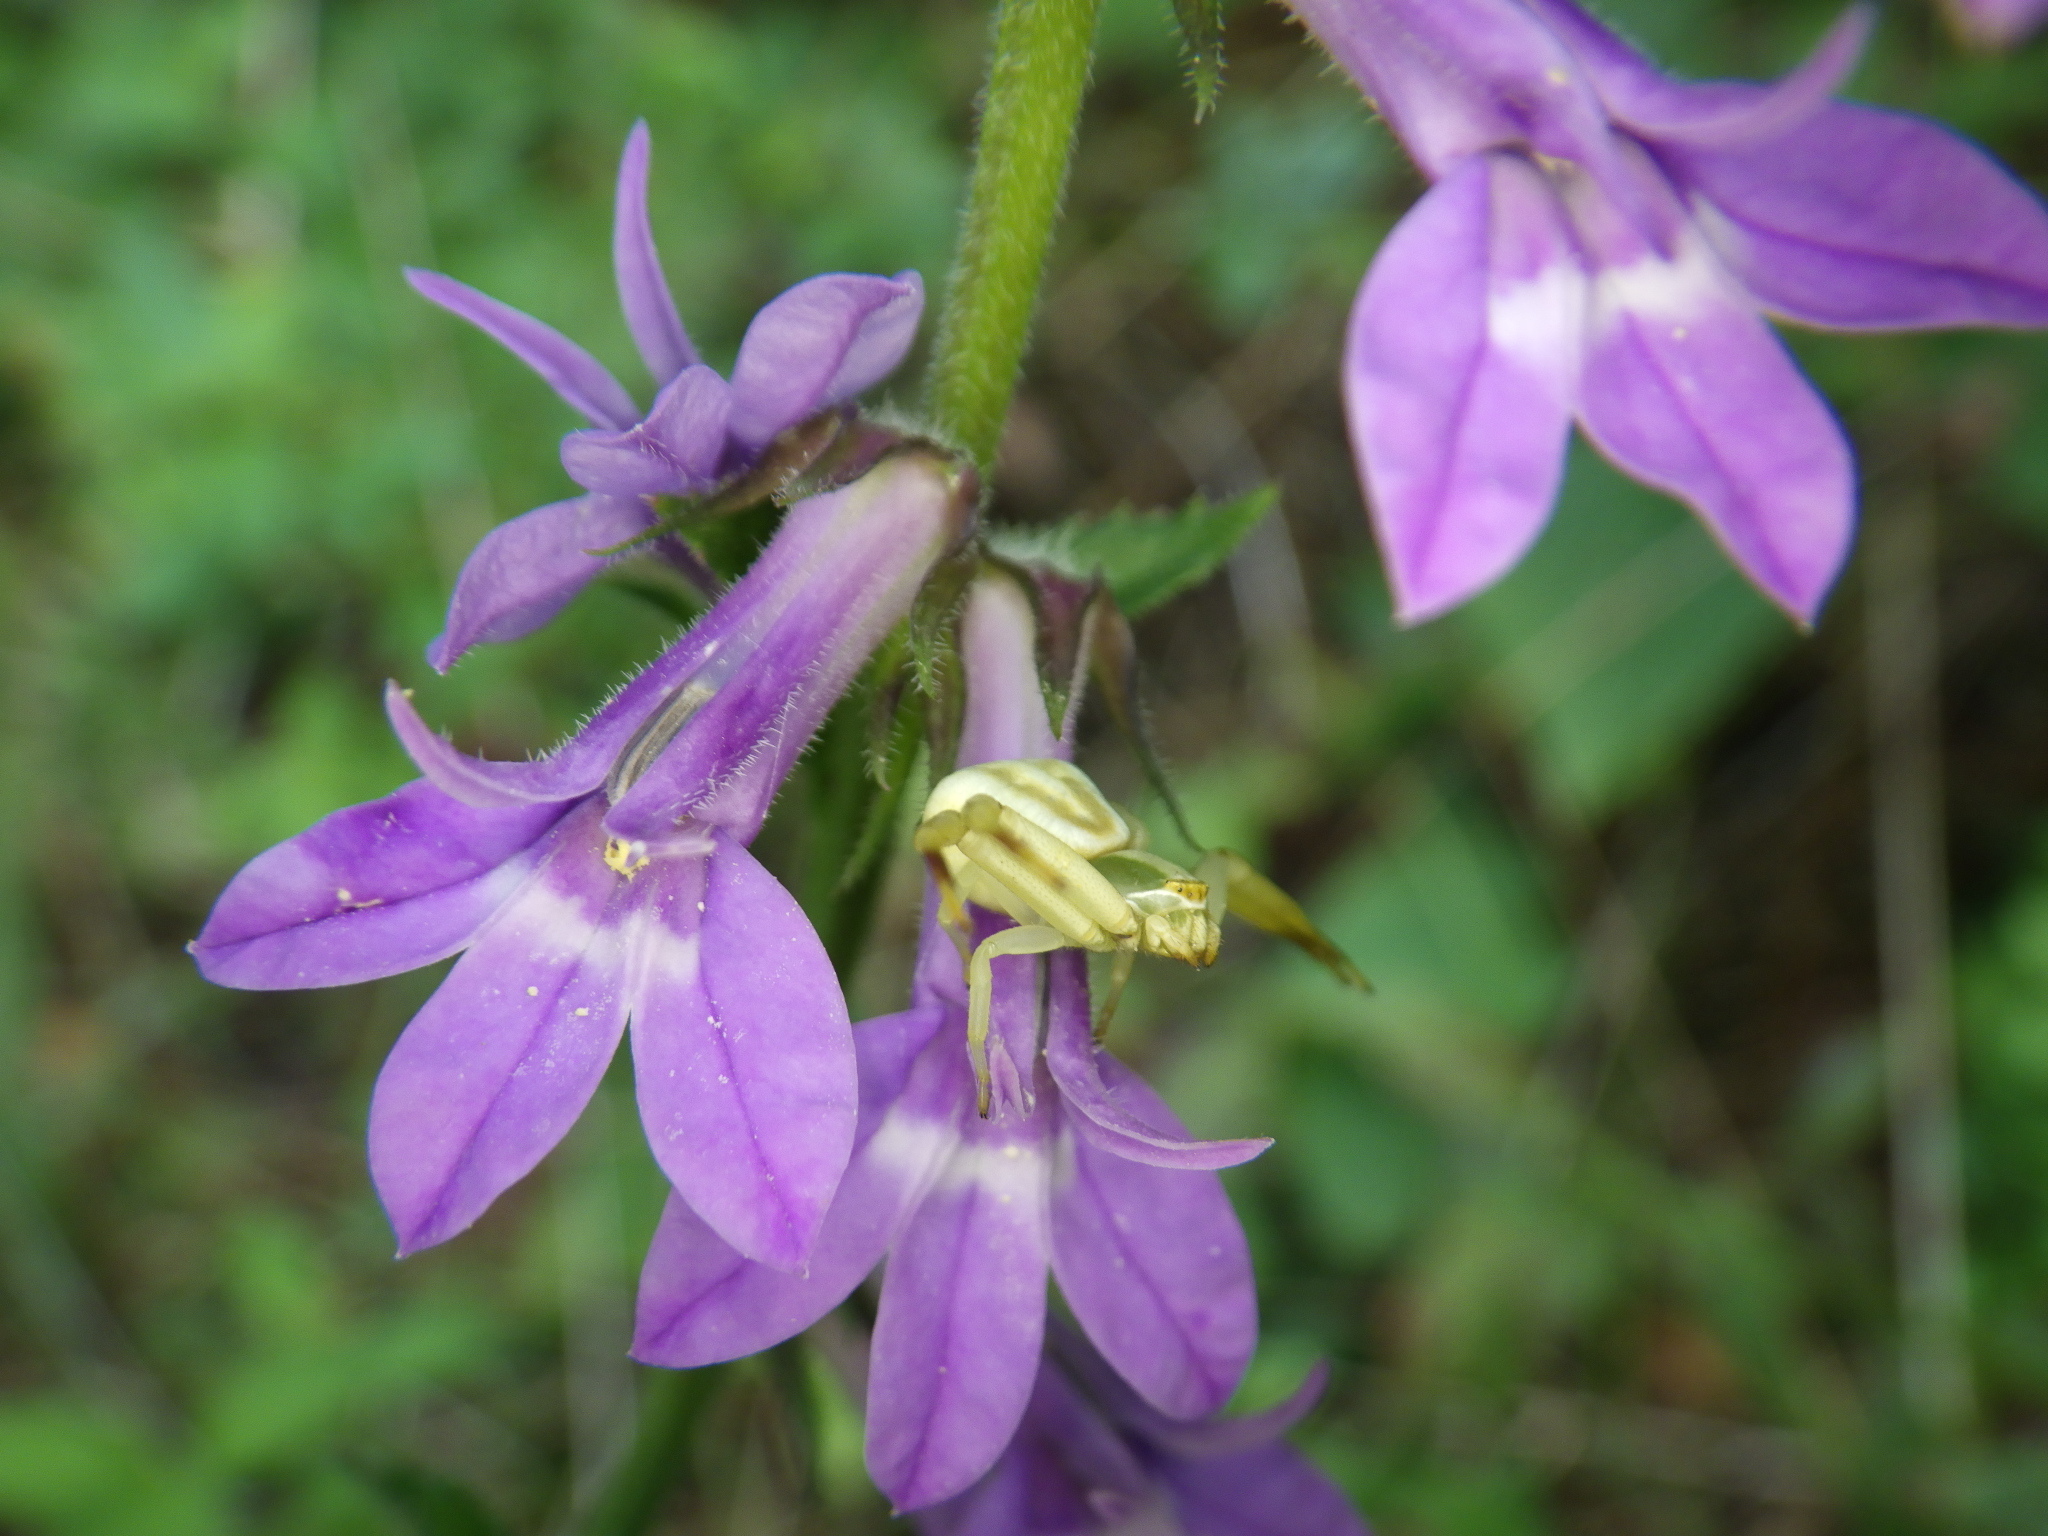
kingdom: Animalia
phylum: Arthropoda
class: Arachnida
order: Araneae
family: Thomisidae
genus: Misumenoides
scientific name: Misumenoides formosipes
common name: White-banded crab spider
